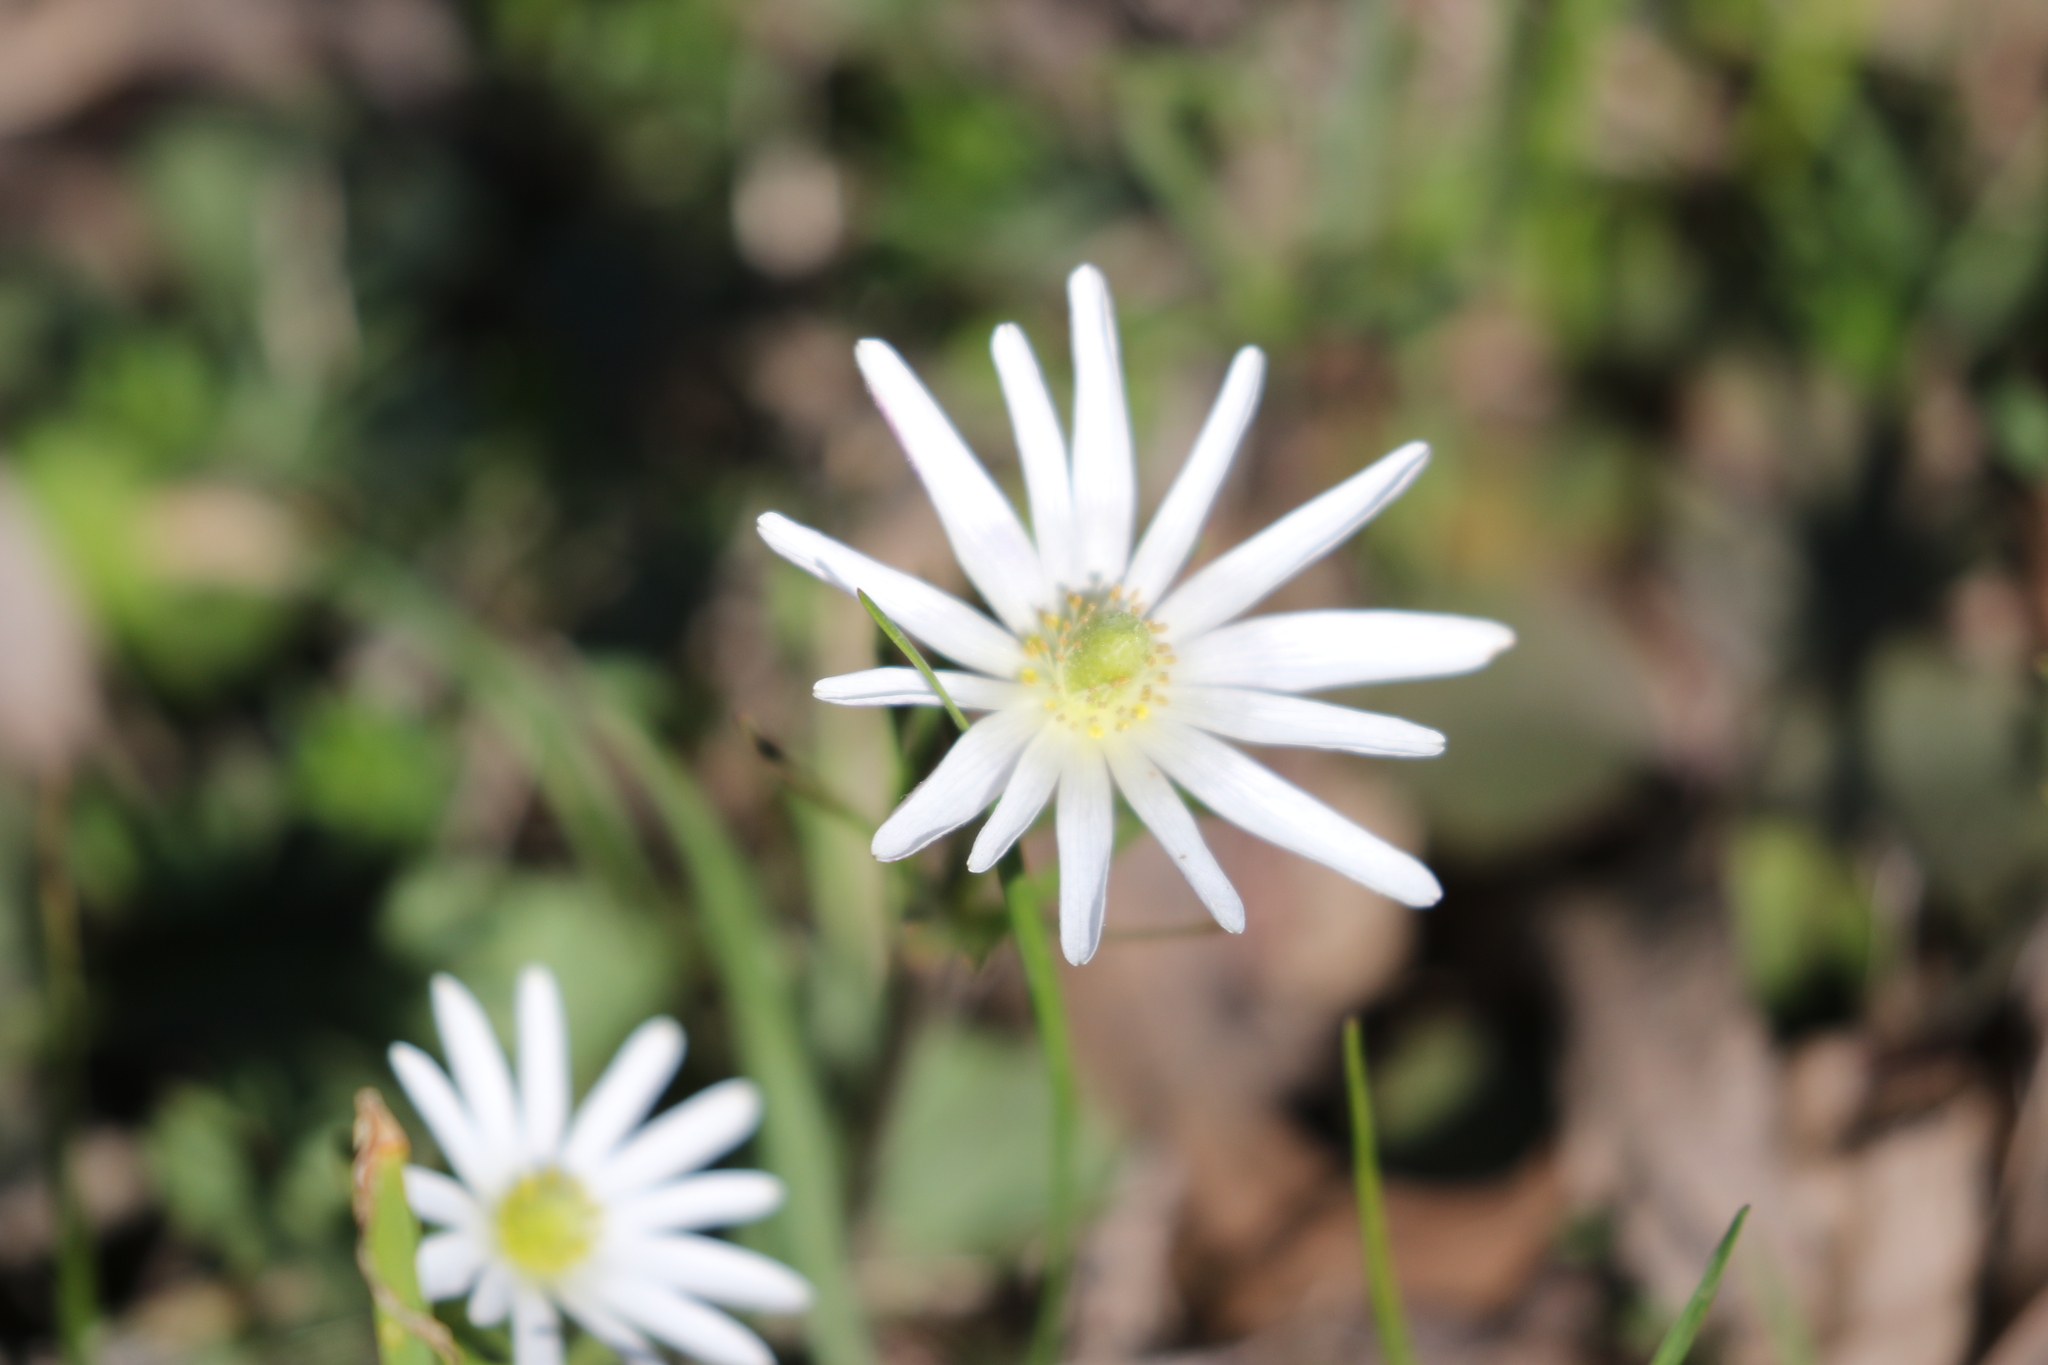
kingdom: Plantae
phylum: Tracheophyta
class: Magnoliopsida
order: Ranunculales
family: Ranunculaceae
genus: Anemone
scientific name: Anemone berlandieri
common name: Ten-petal anemone
